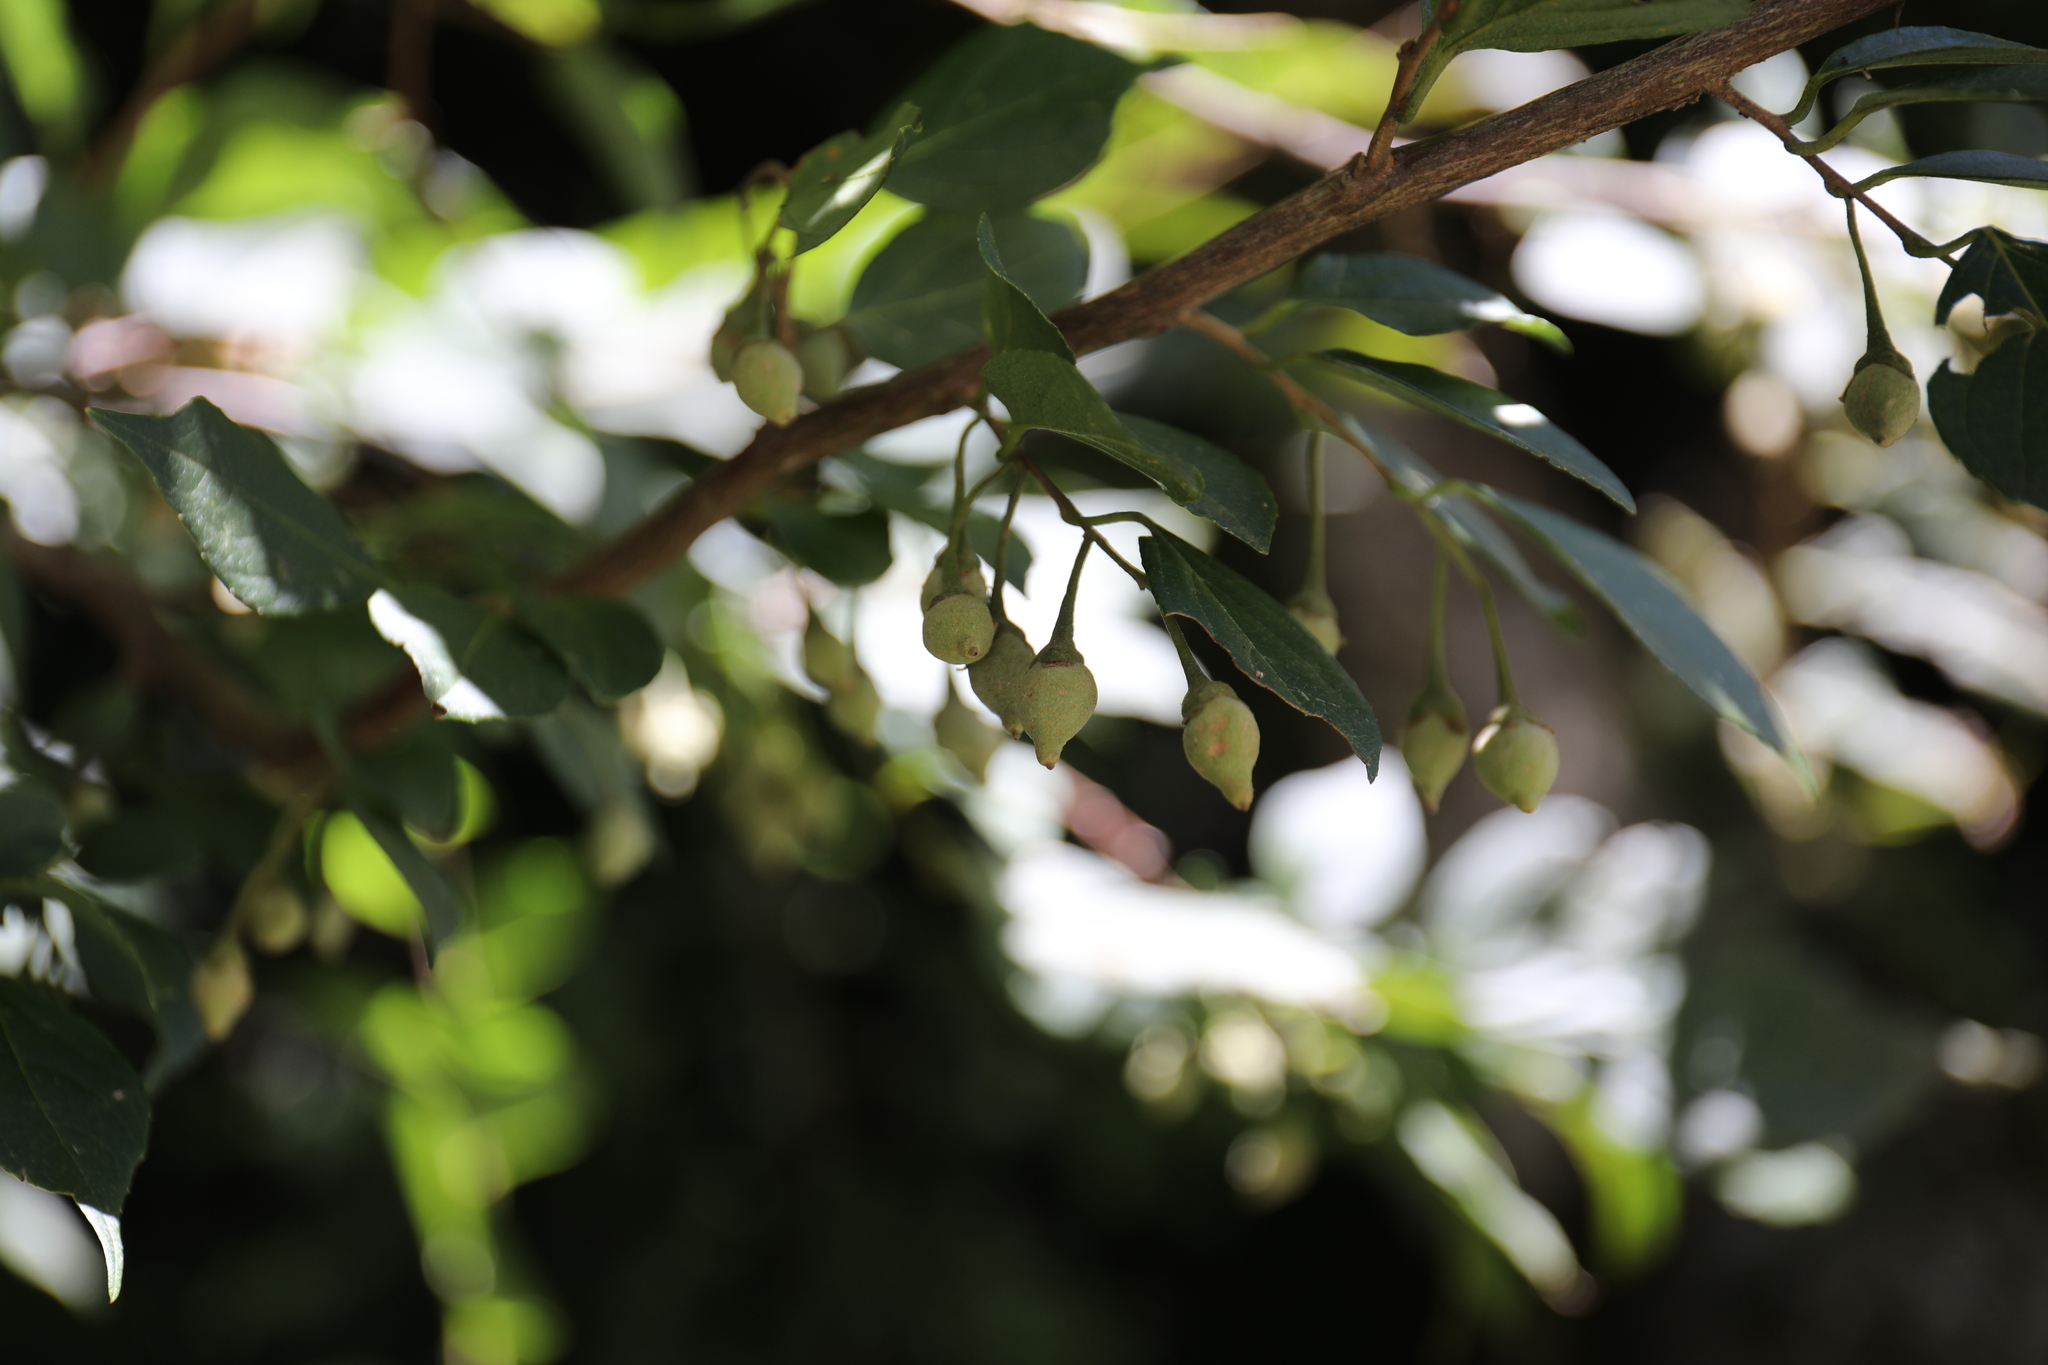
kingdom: Plantae
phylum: Tracheophyta
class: Magnoliopsida
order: Ericales
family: Styracaceae
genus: Styrax
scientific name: Styrax formosanus
